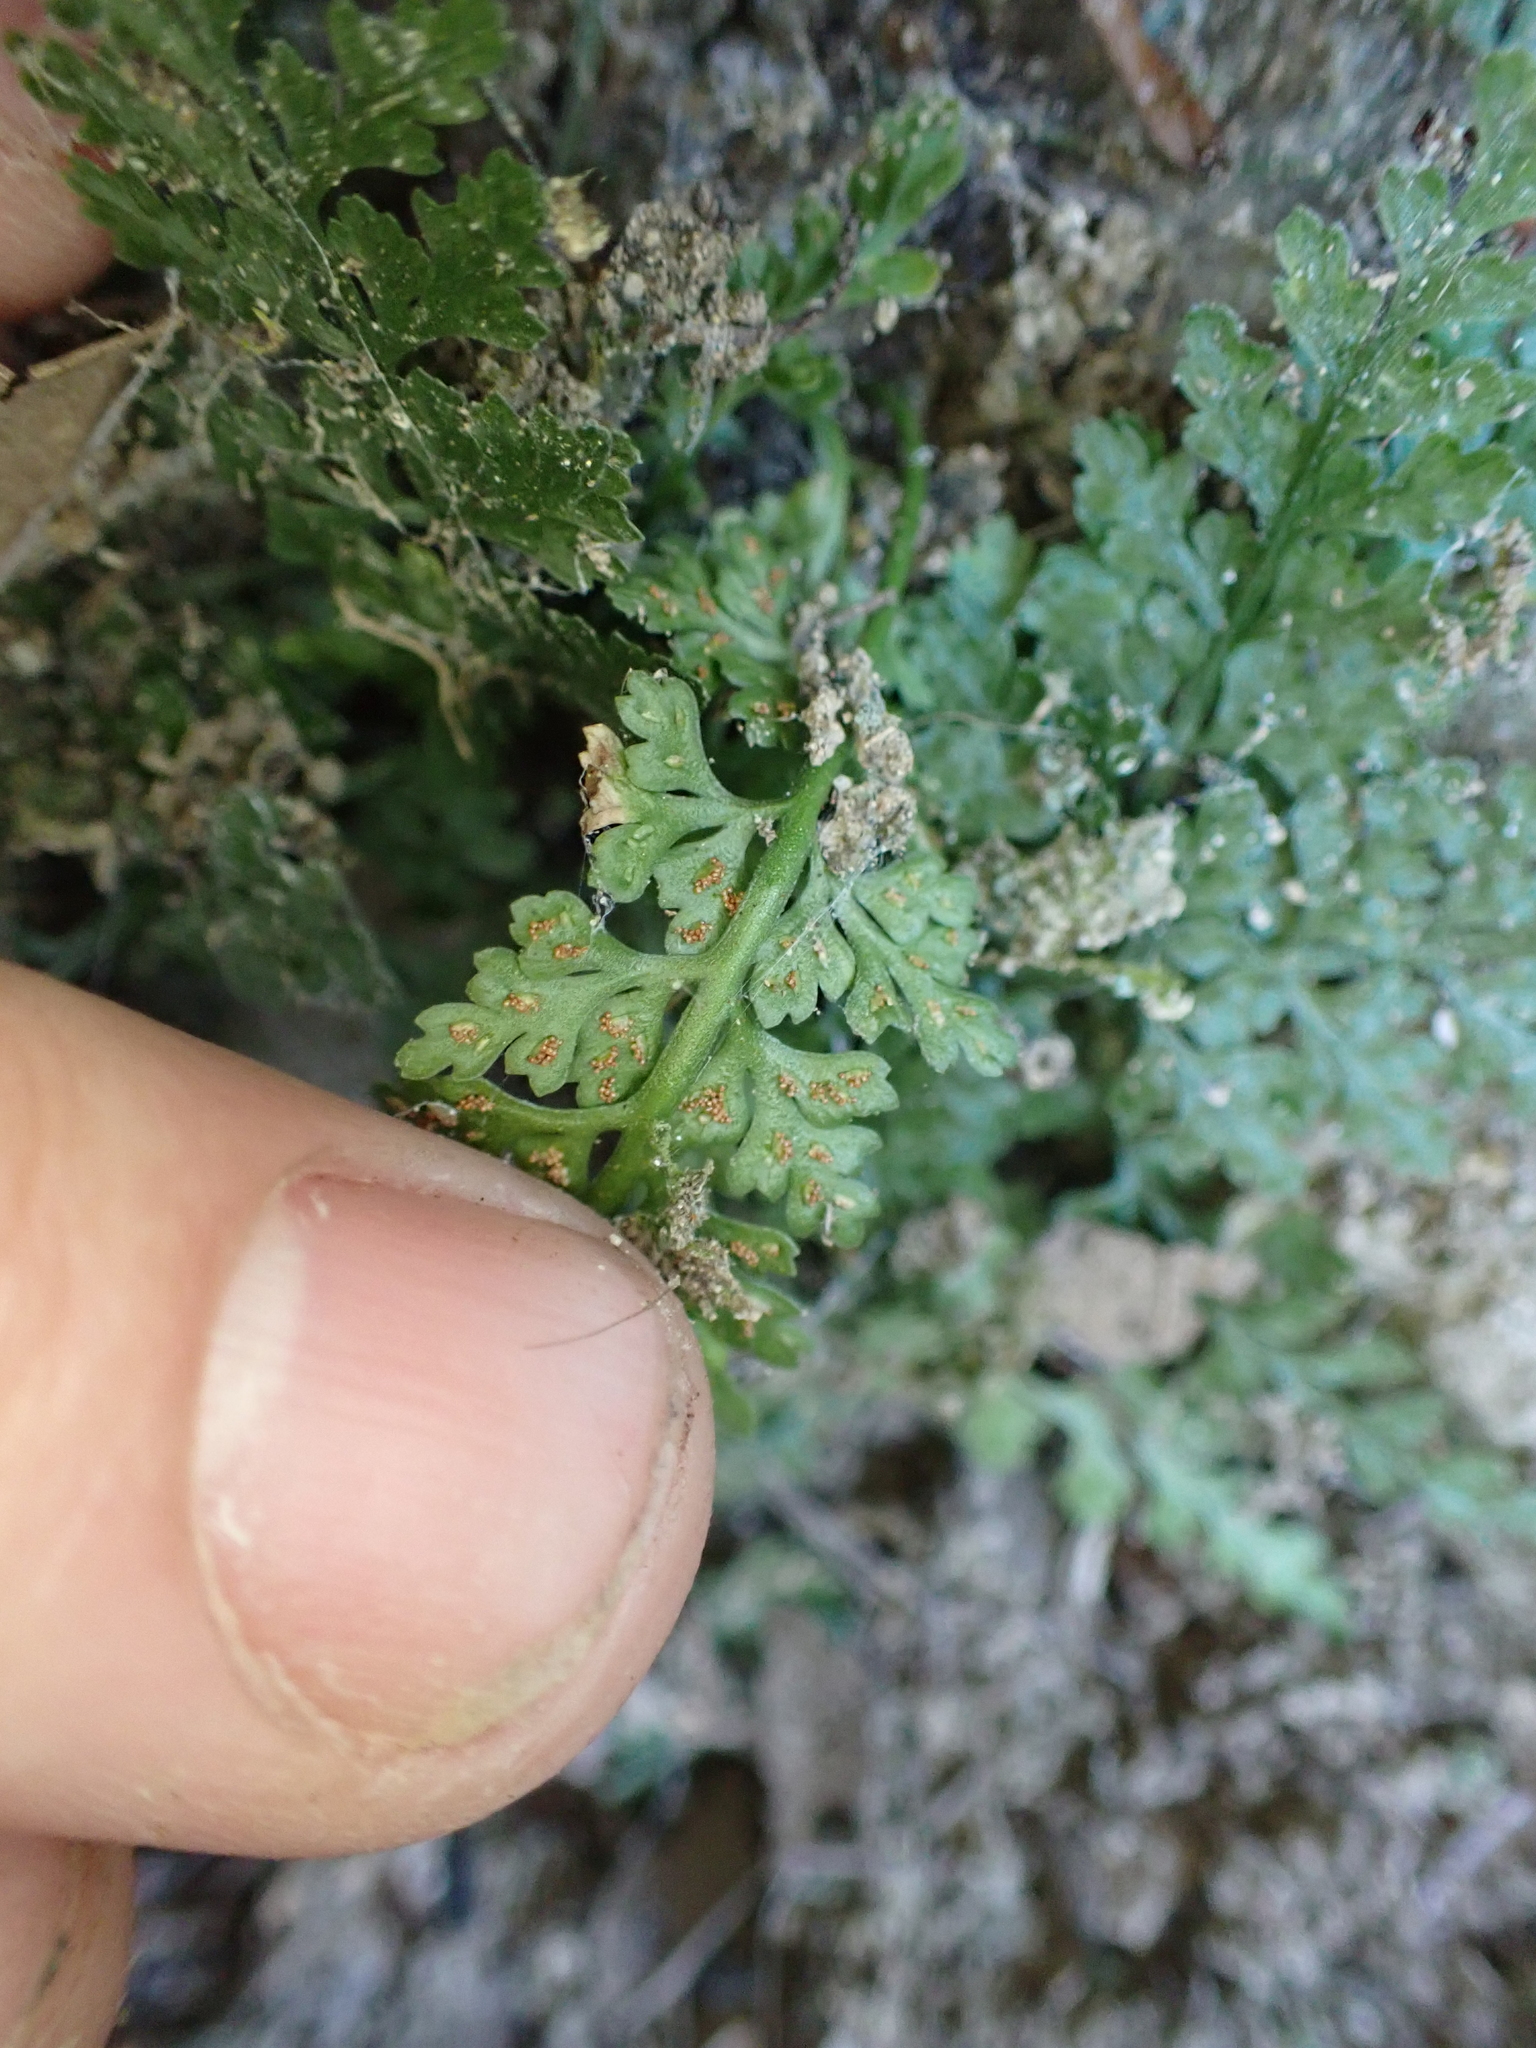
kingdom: Plantae
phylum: Tracheophyta
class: Polypodiopsida
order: Polypodiales
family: Aspleniaceae
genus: Asplenium
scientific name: Asplenium montanum
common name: Mountain spleenwort
